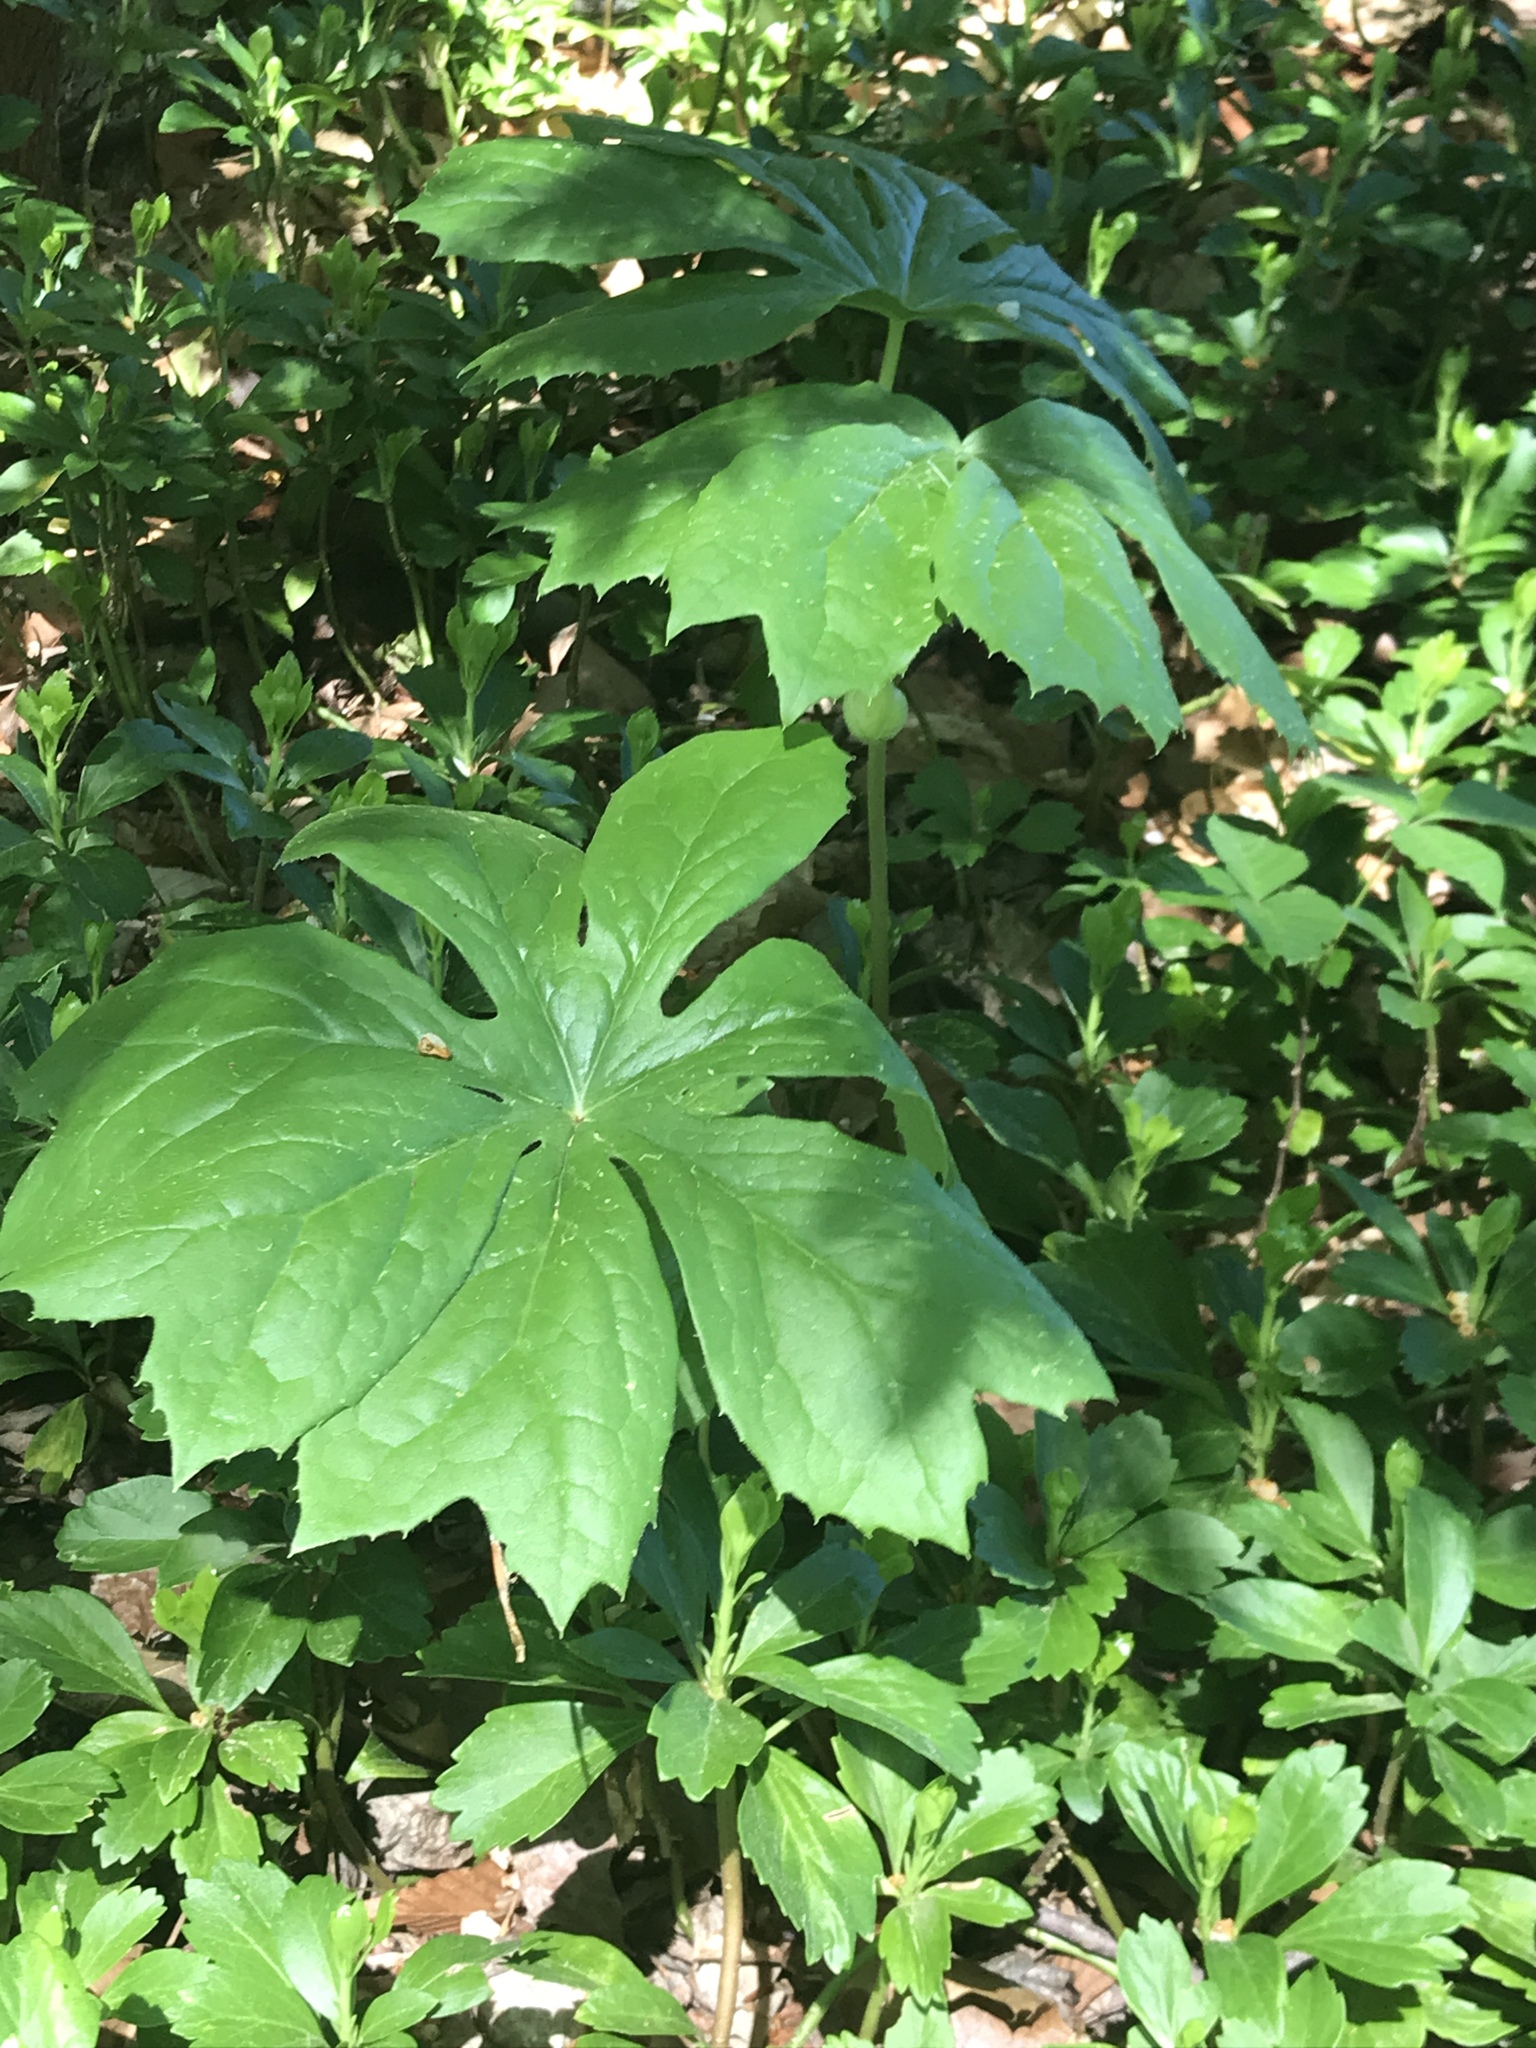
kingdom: Plantae
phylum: Tracheophyta
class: Magnoliopsida
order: Ranunculales
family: Berberidaceae
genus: Podophyllum
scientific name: Podophyllum peltatum
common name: Wild mandrake
